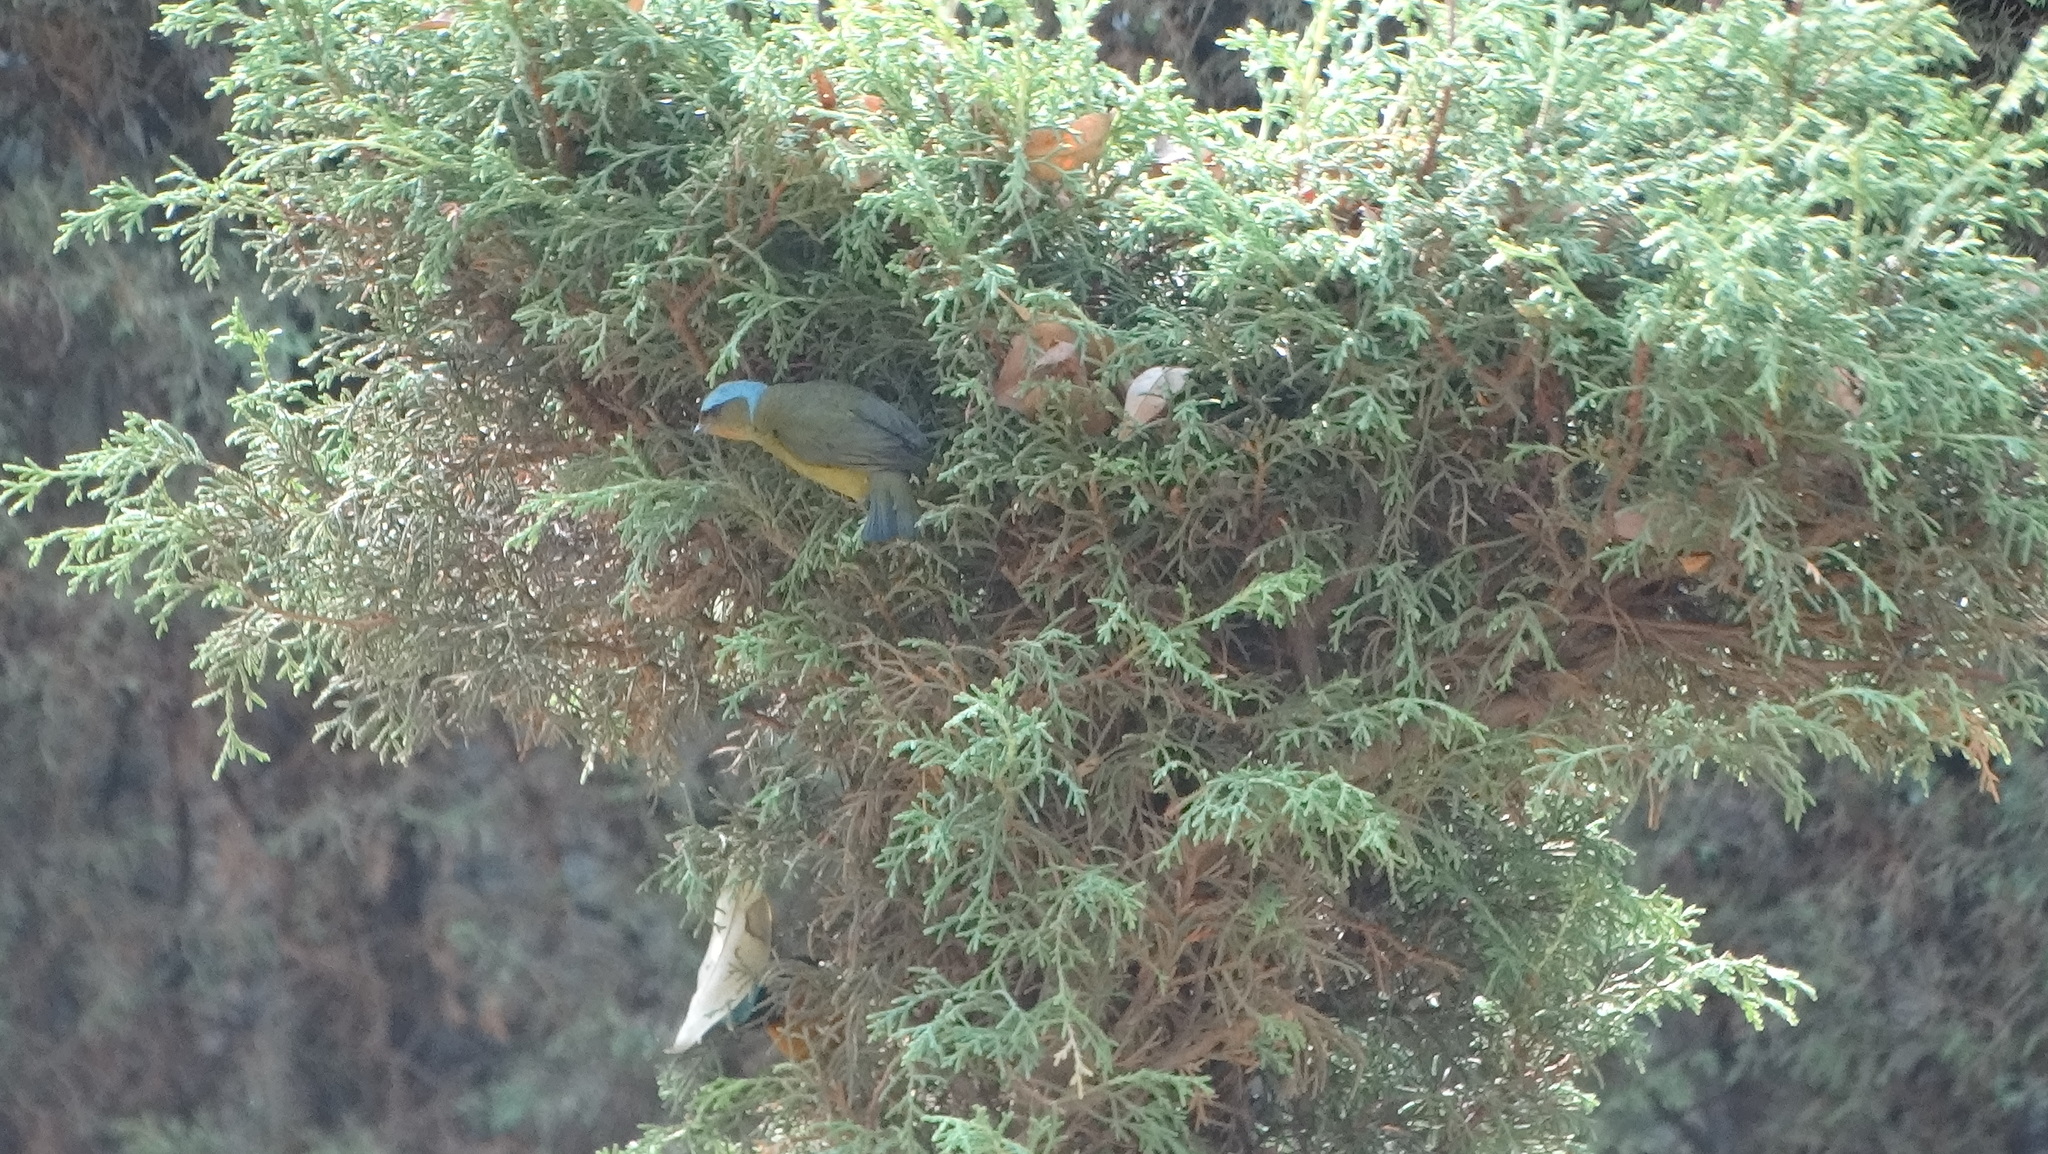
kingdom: Animalia
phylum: Chordata
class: Aves
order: Passeriformes
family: Fringillidae
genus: Euphonia
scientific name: Euphonia elegantissima
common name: Elegant euphonia
